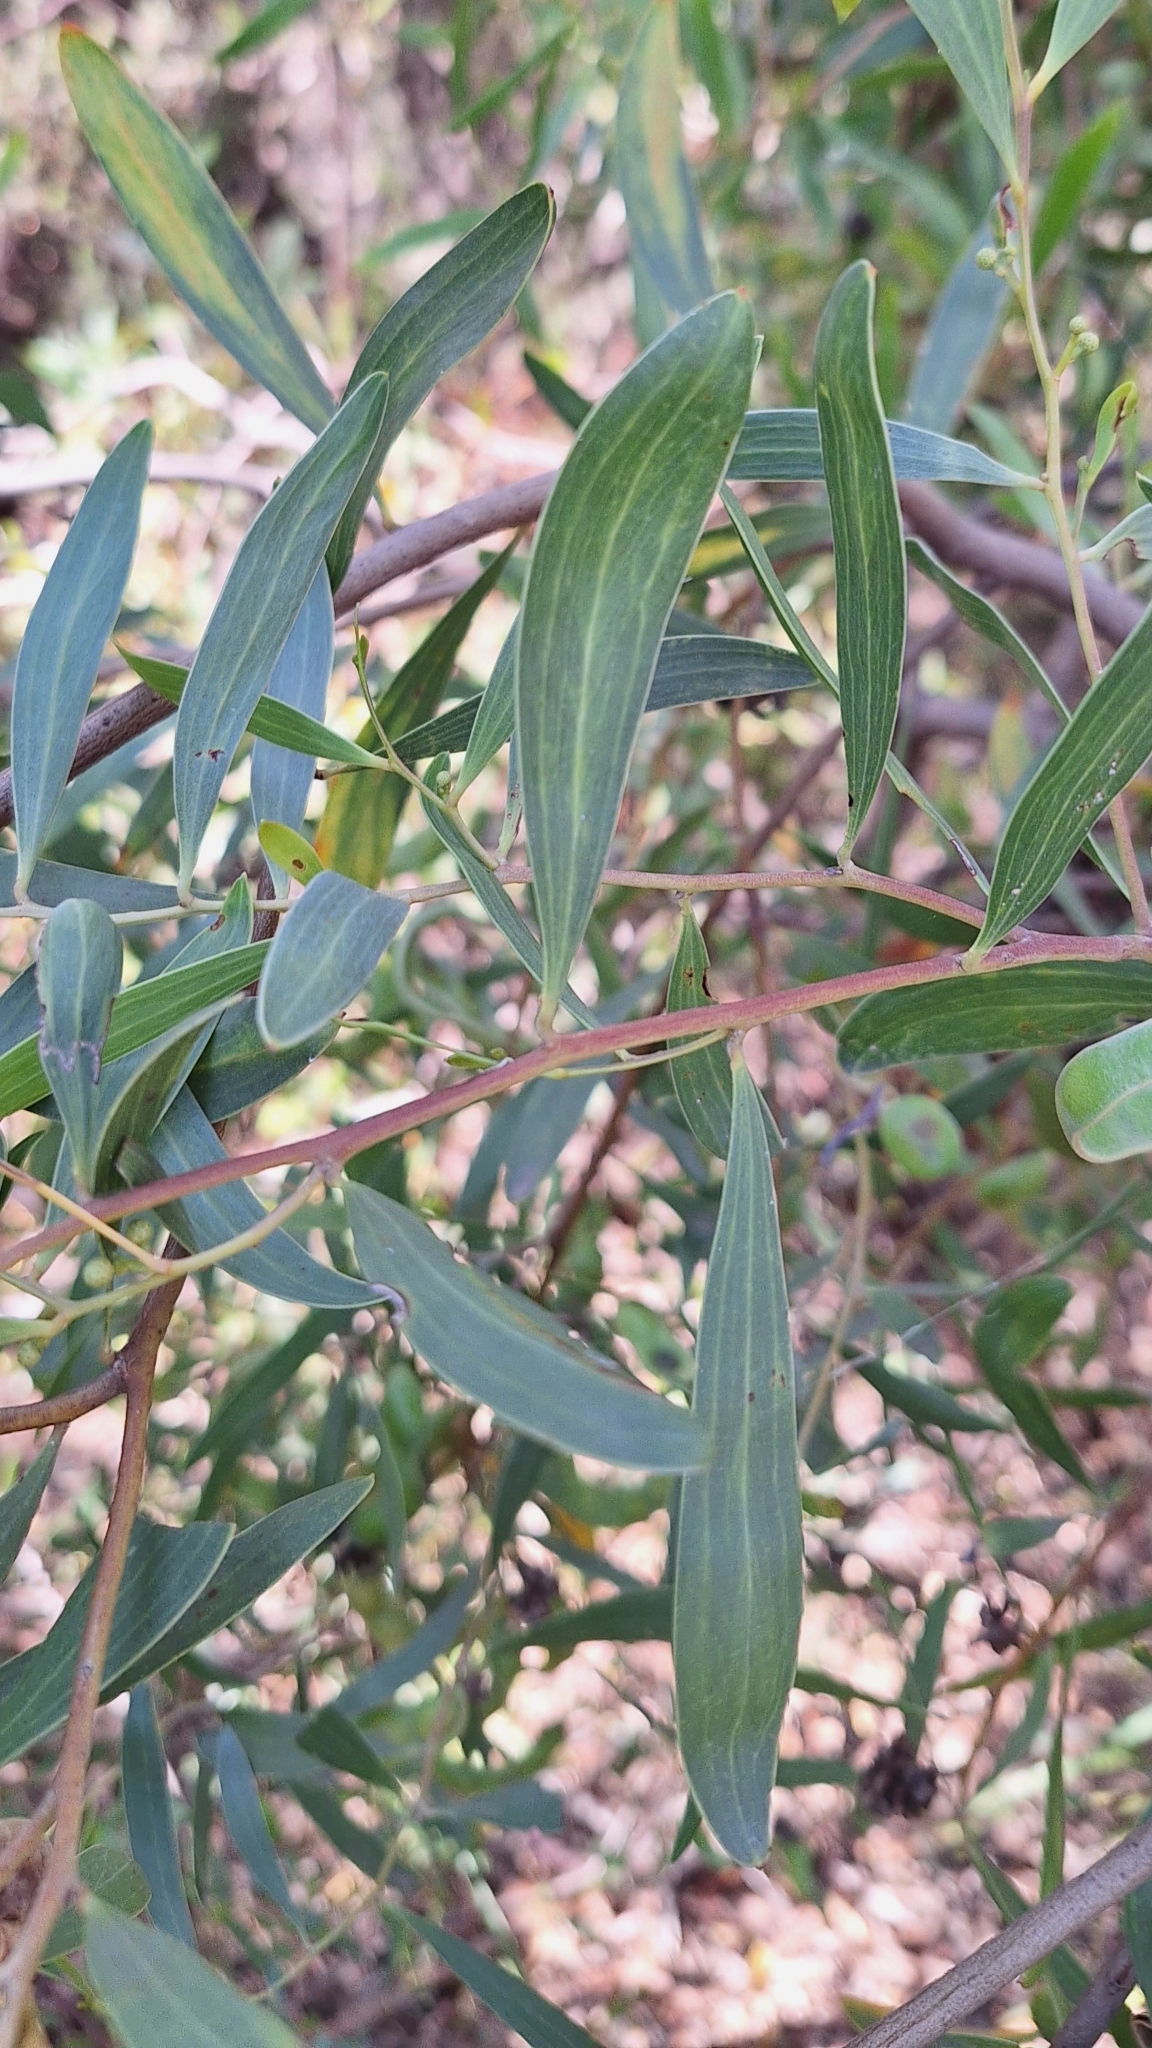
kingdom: Plantae
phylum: Tracheophyta
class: Magnoliopsida
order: Fabales
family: Fabaceae
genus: Acacia
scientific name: Acacia cyclops
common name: Coastal wattle
